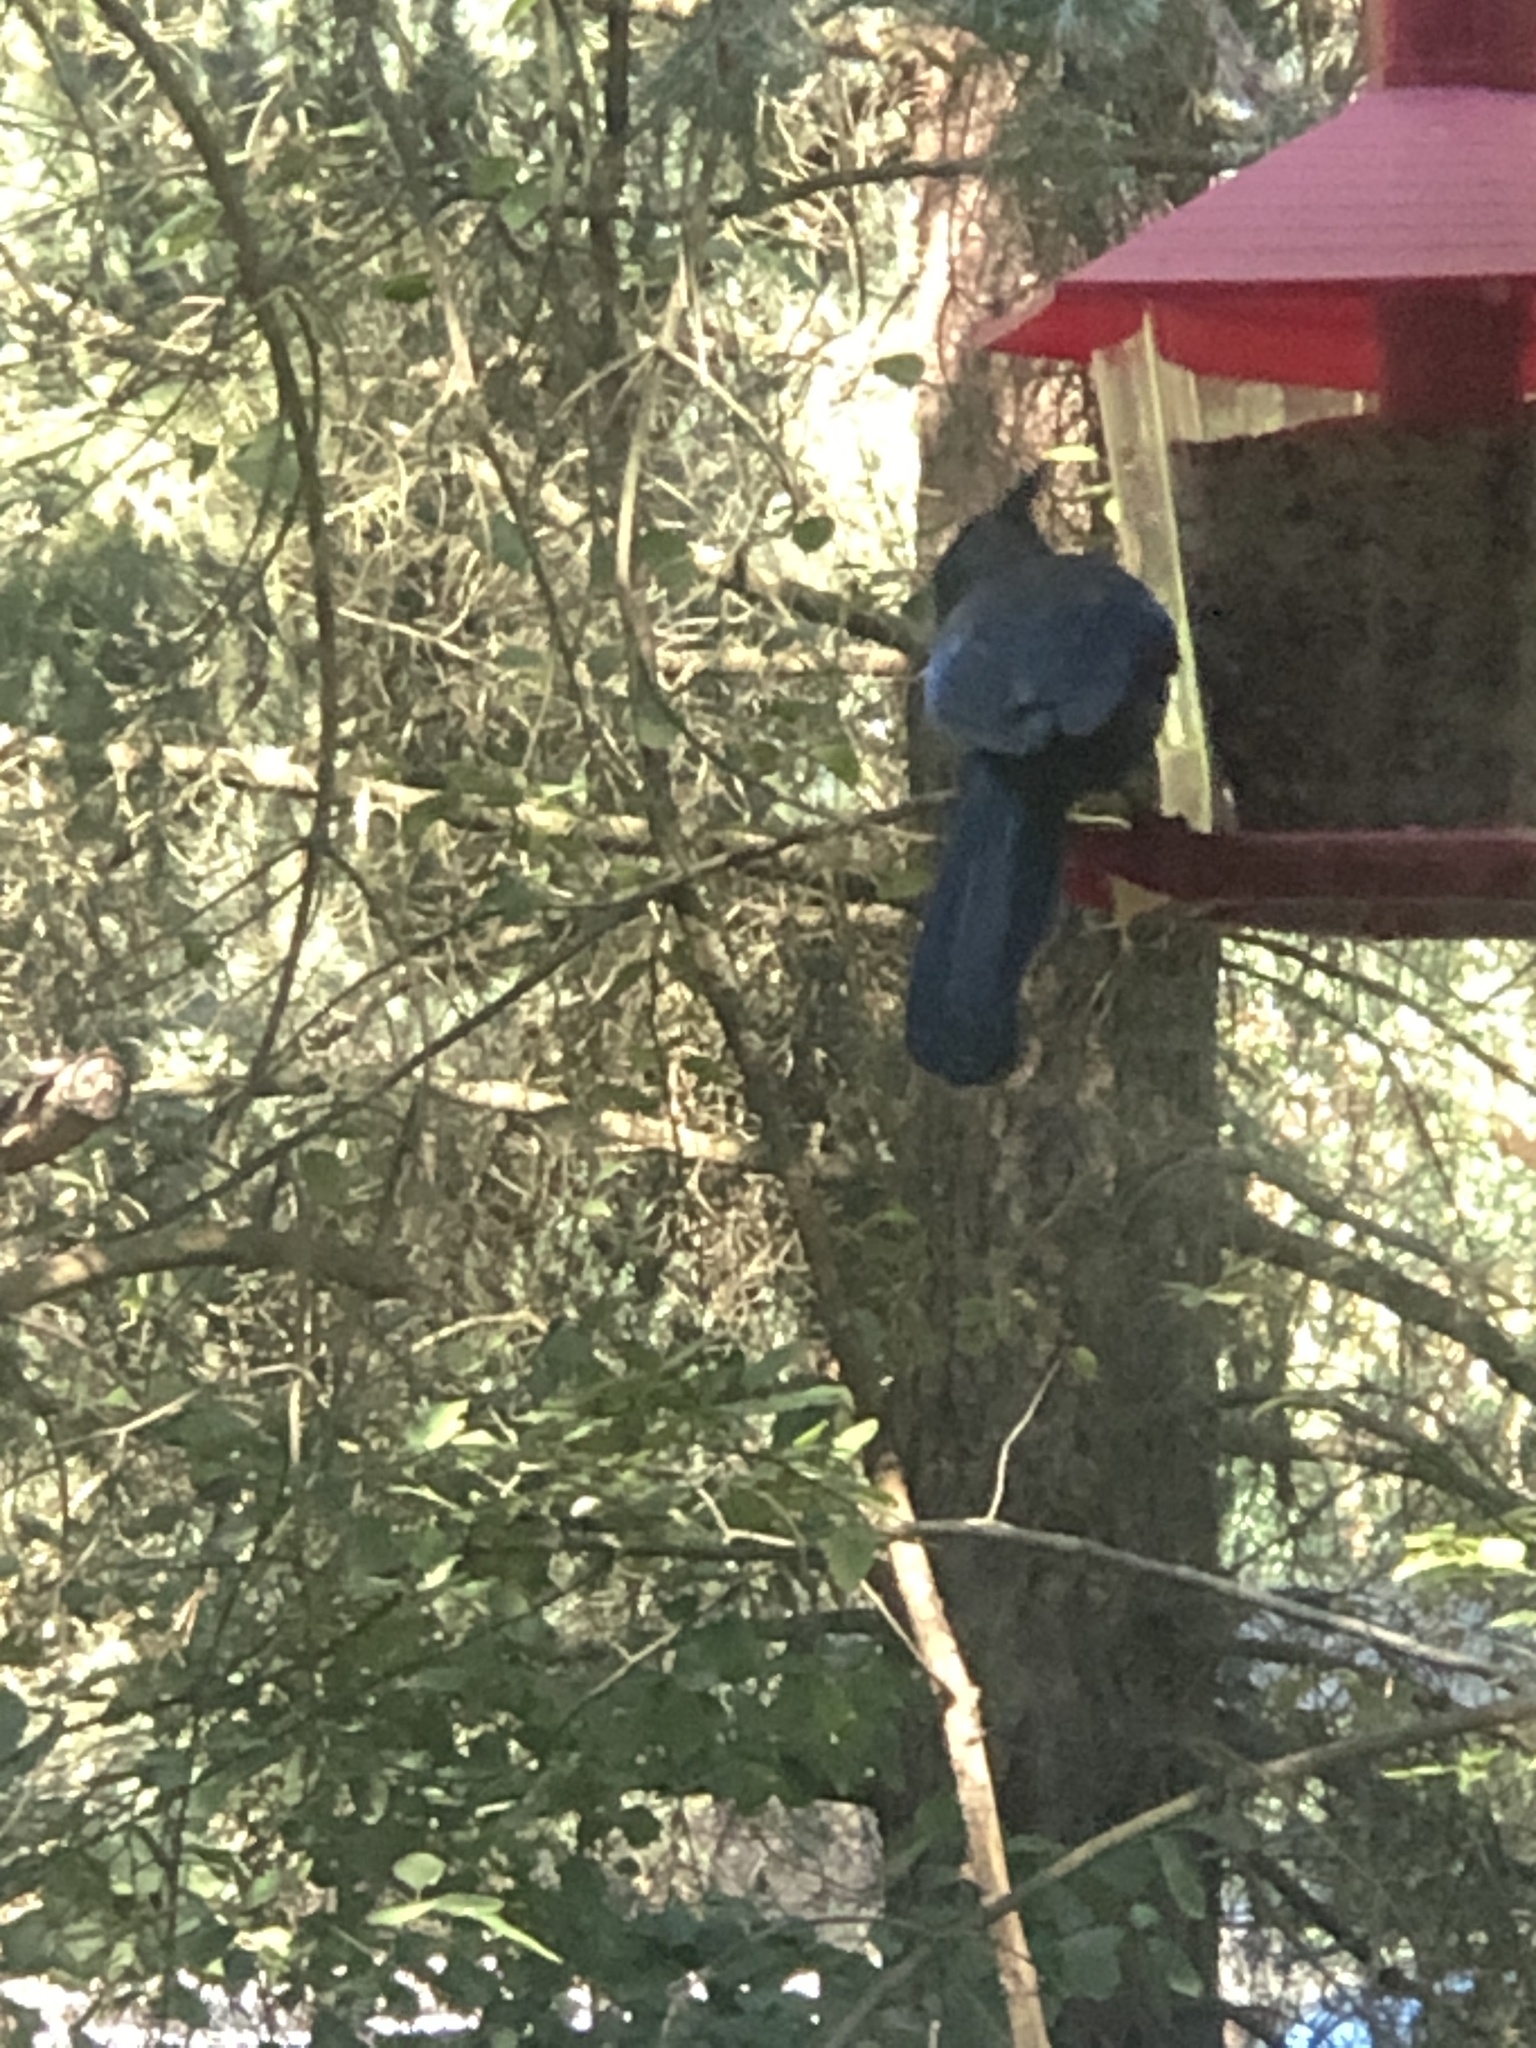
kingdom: Animalia
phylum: Chordata
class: Aves
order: Passeriformes
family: Corvidae
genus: Cyanocitta
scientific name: Cyanocitta stelleri
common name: Steller's jay
